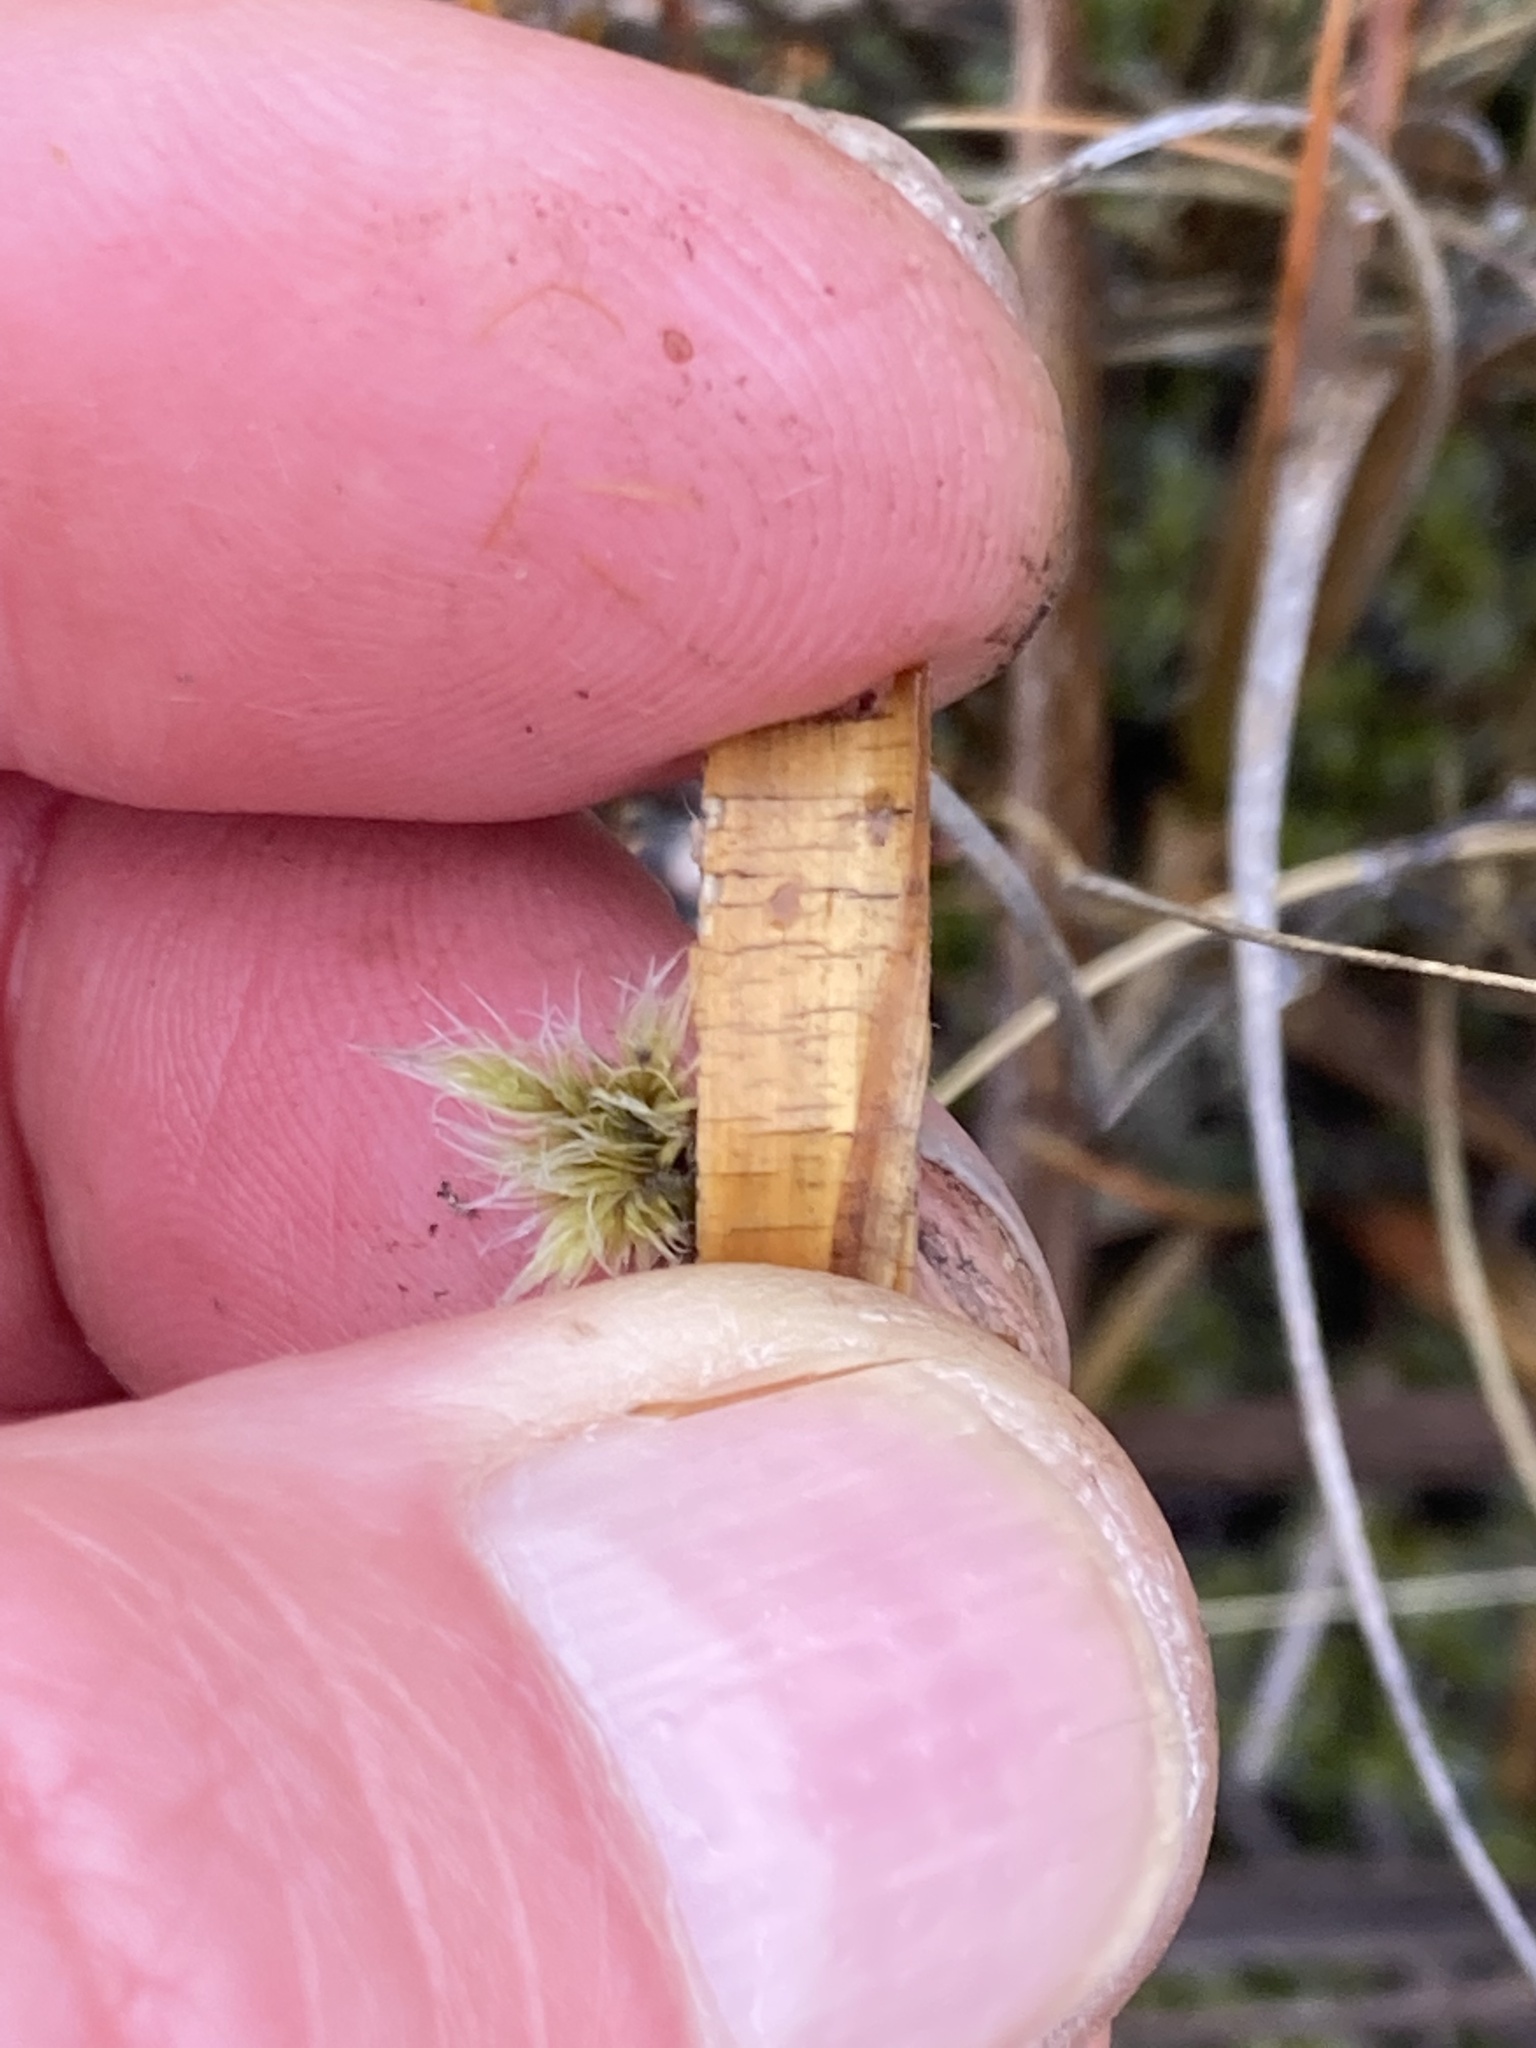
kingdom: Plantae
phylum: Tracheophyta
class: Liliopsida
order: Poales
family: Poaceae
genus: Chionochloa
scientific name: Chionochloa rigida
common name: Narrow leaved snow tussock
